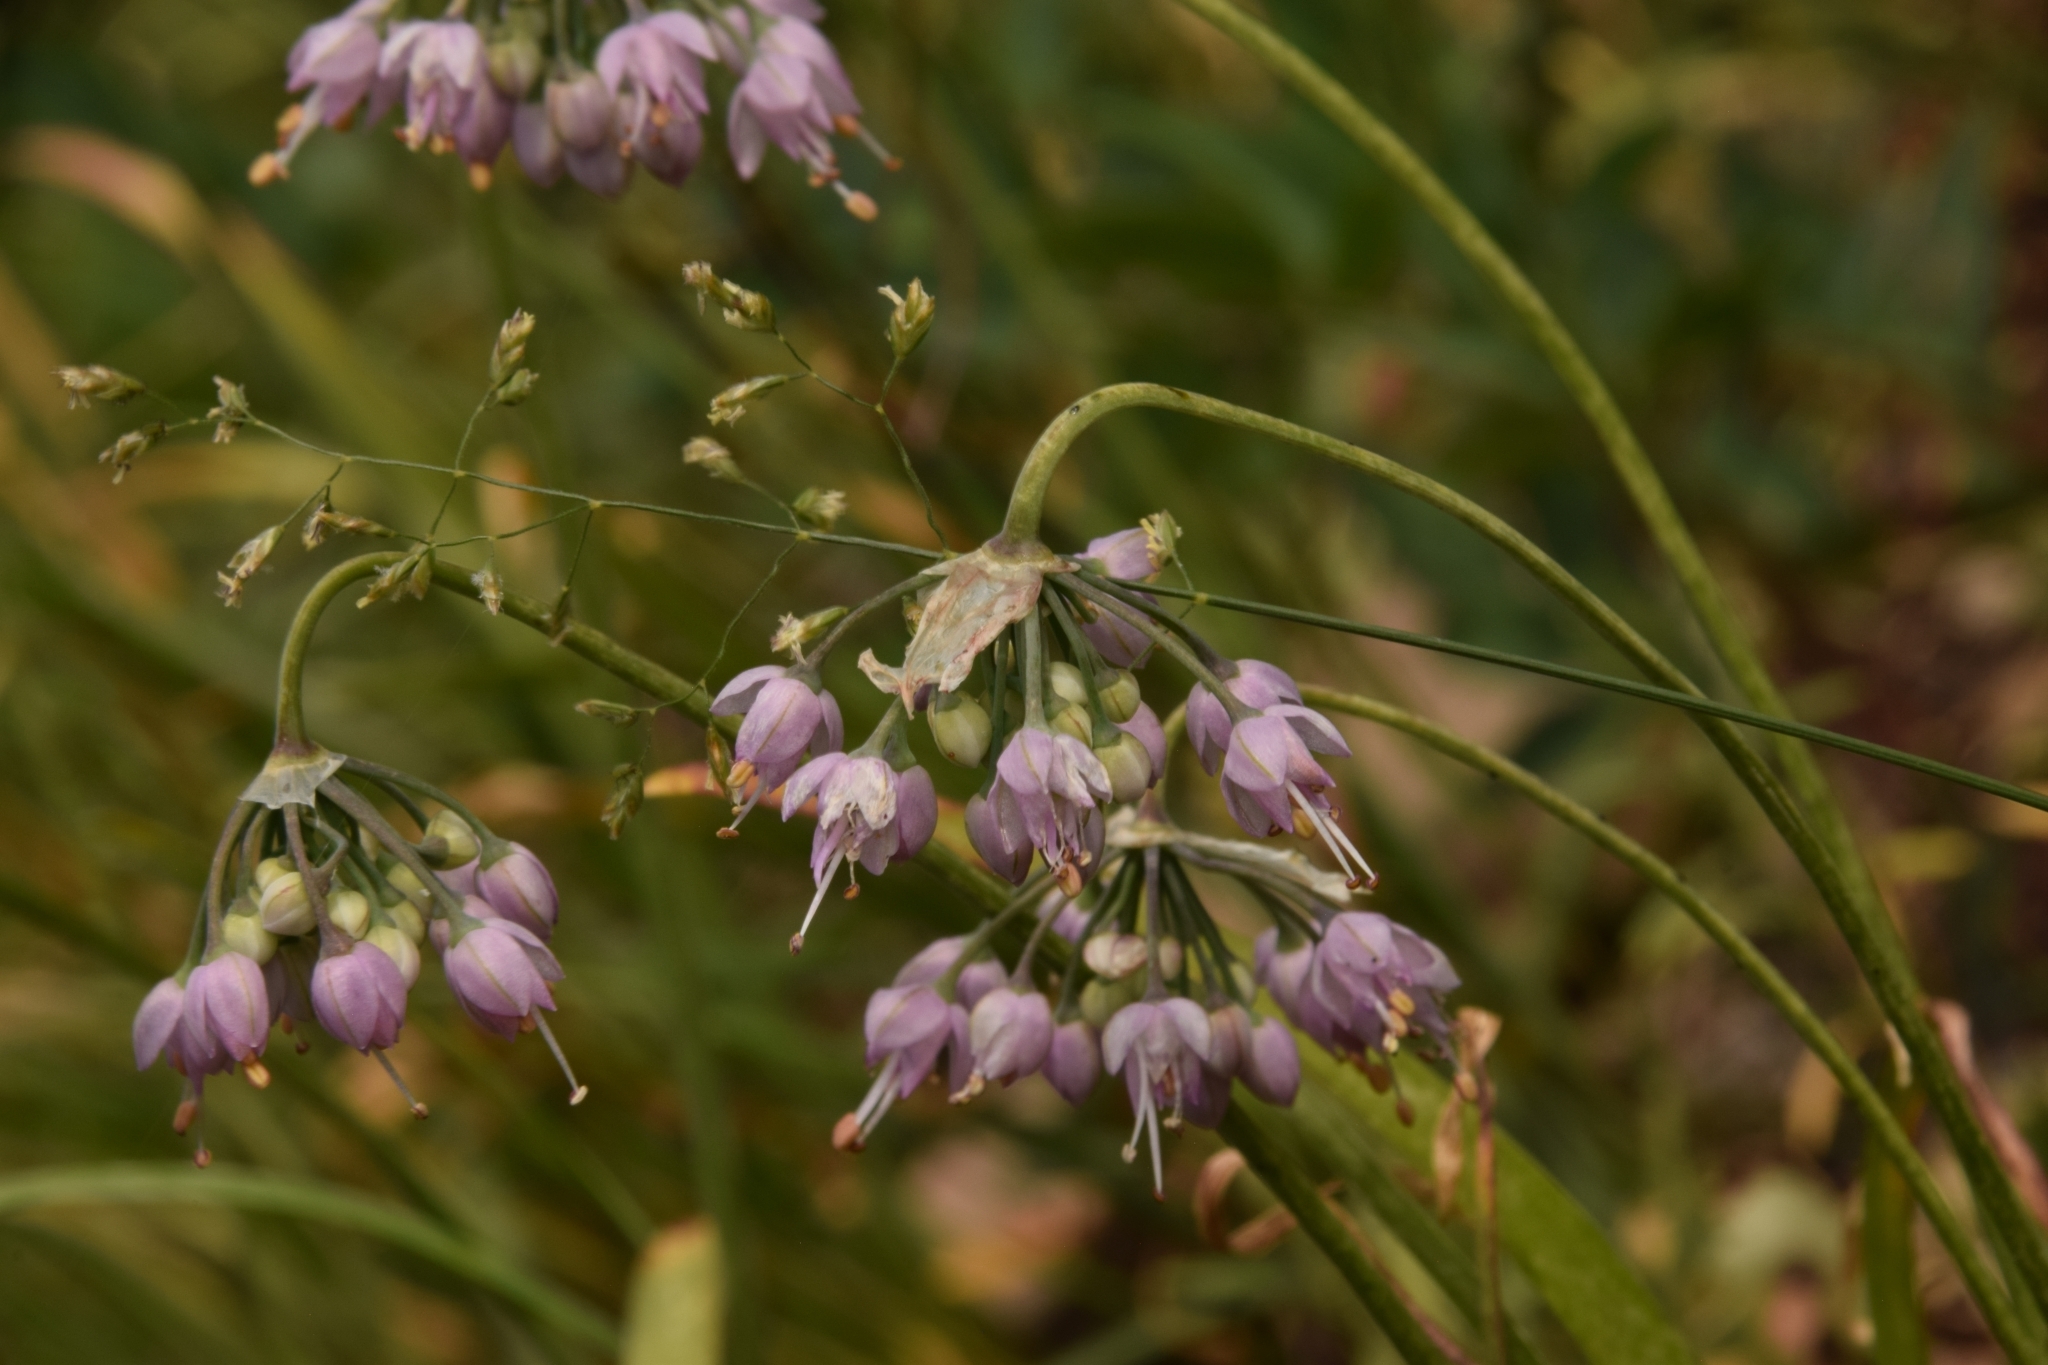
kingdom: Plantae
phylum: Tracheophyta
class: Liliopsida
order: Asparagales
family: Amaryllidaceae
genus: Allium
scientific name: Allium cernuum
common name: Nodding onion
